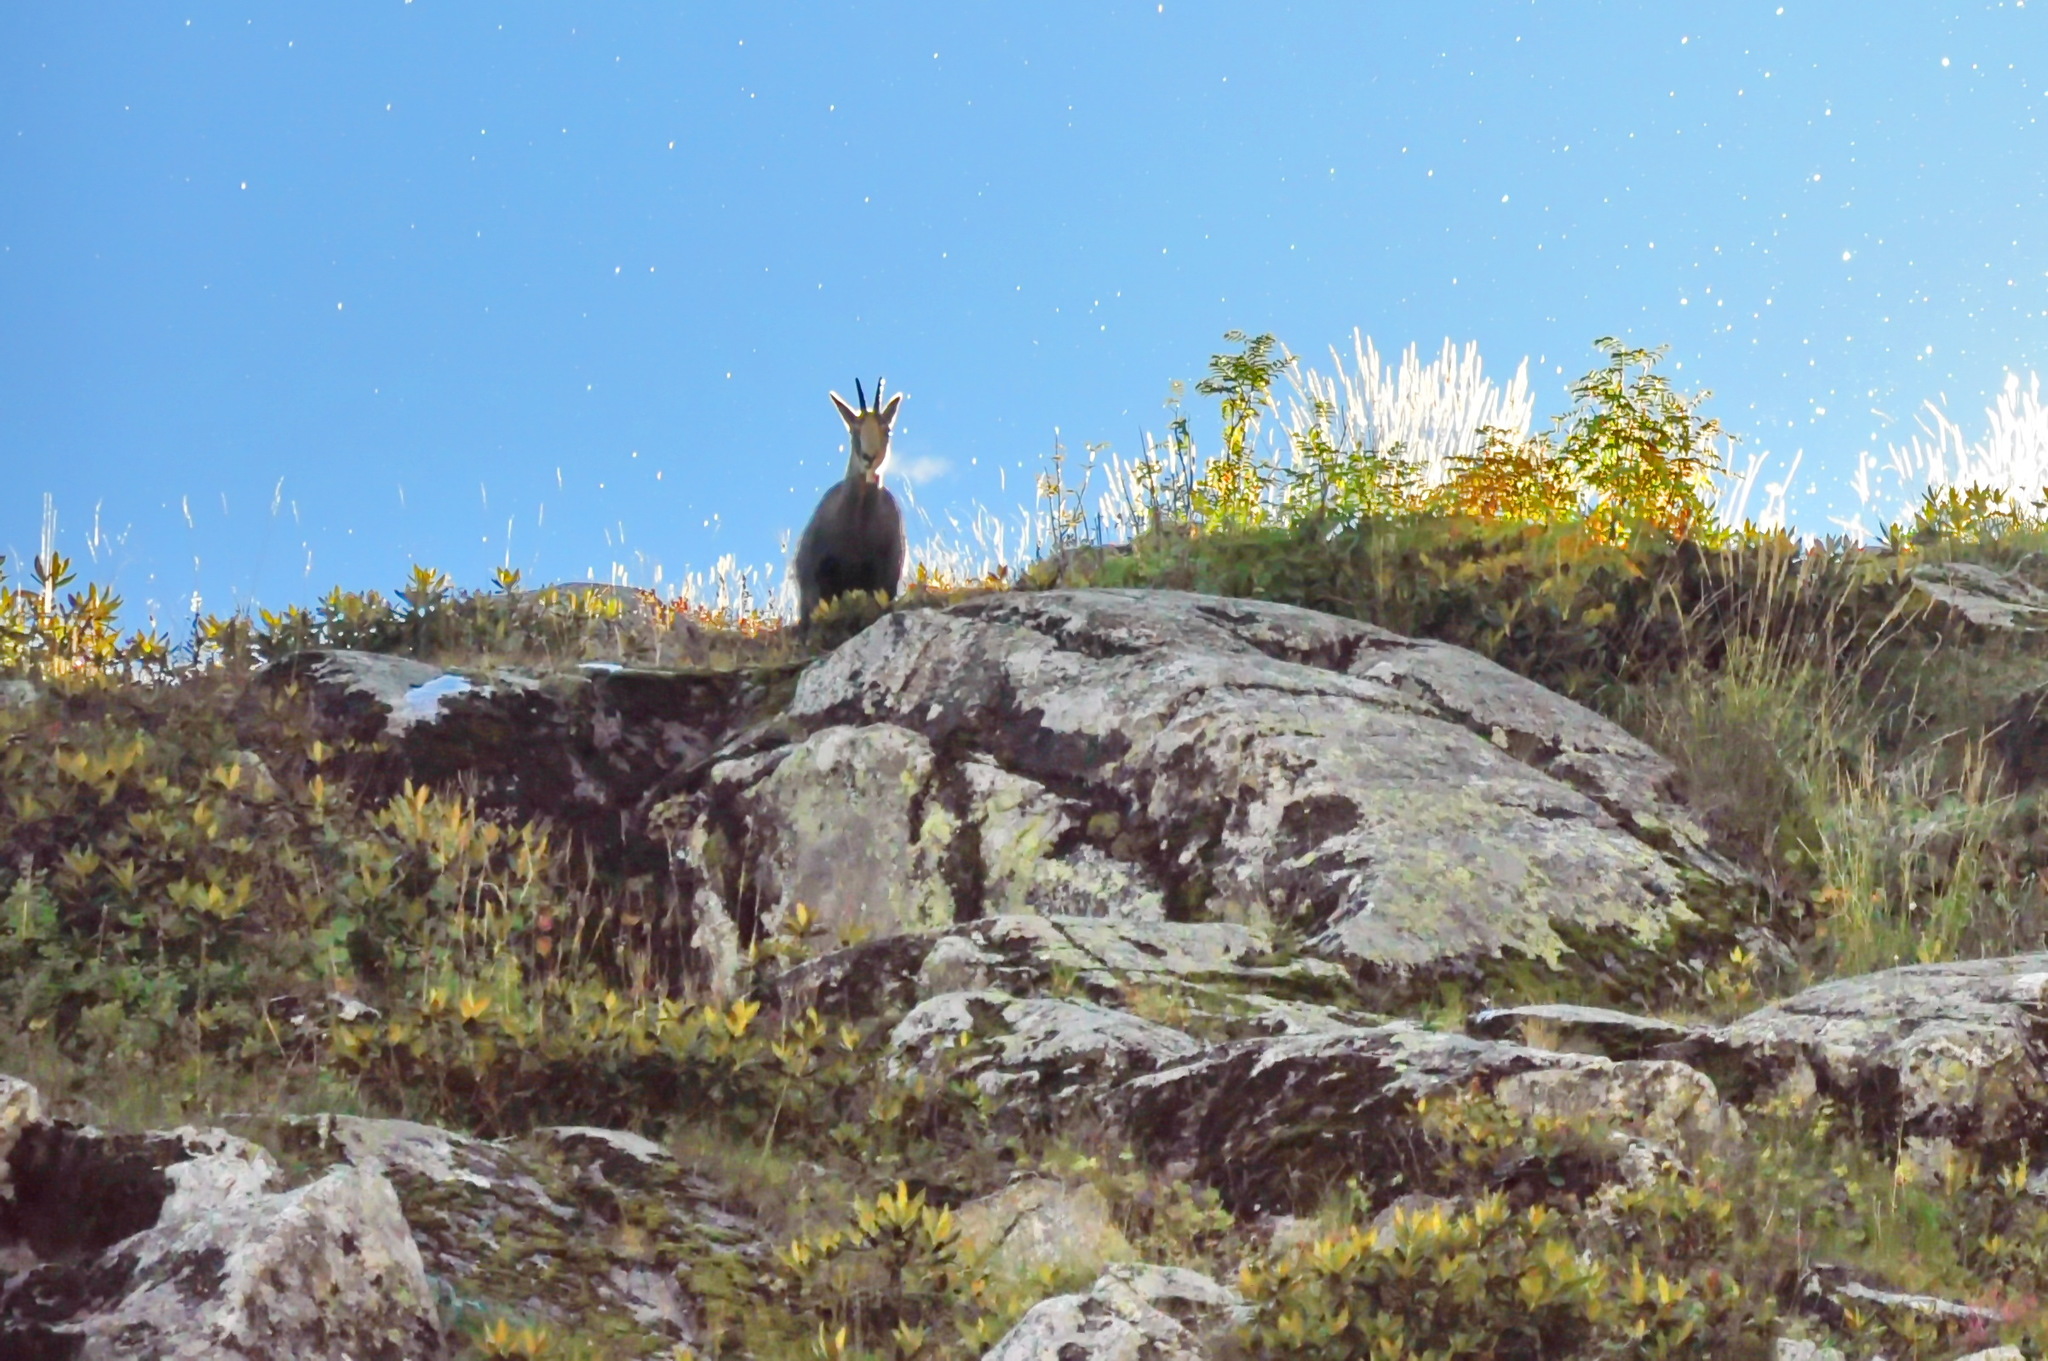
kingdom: Animalia
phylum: Chordata
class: Mammalia
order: Artiodactyla
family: Bovidae
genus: Rupicapra
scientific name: Rupicapra rupicapra
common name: Chamois
